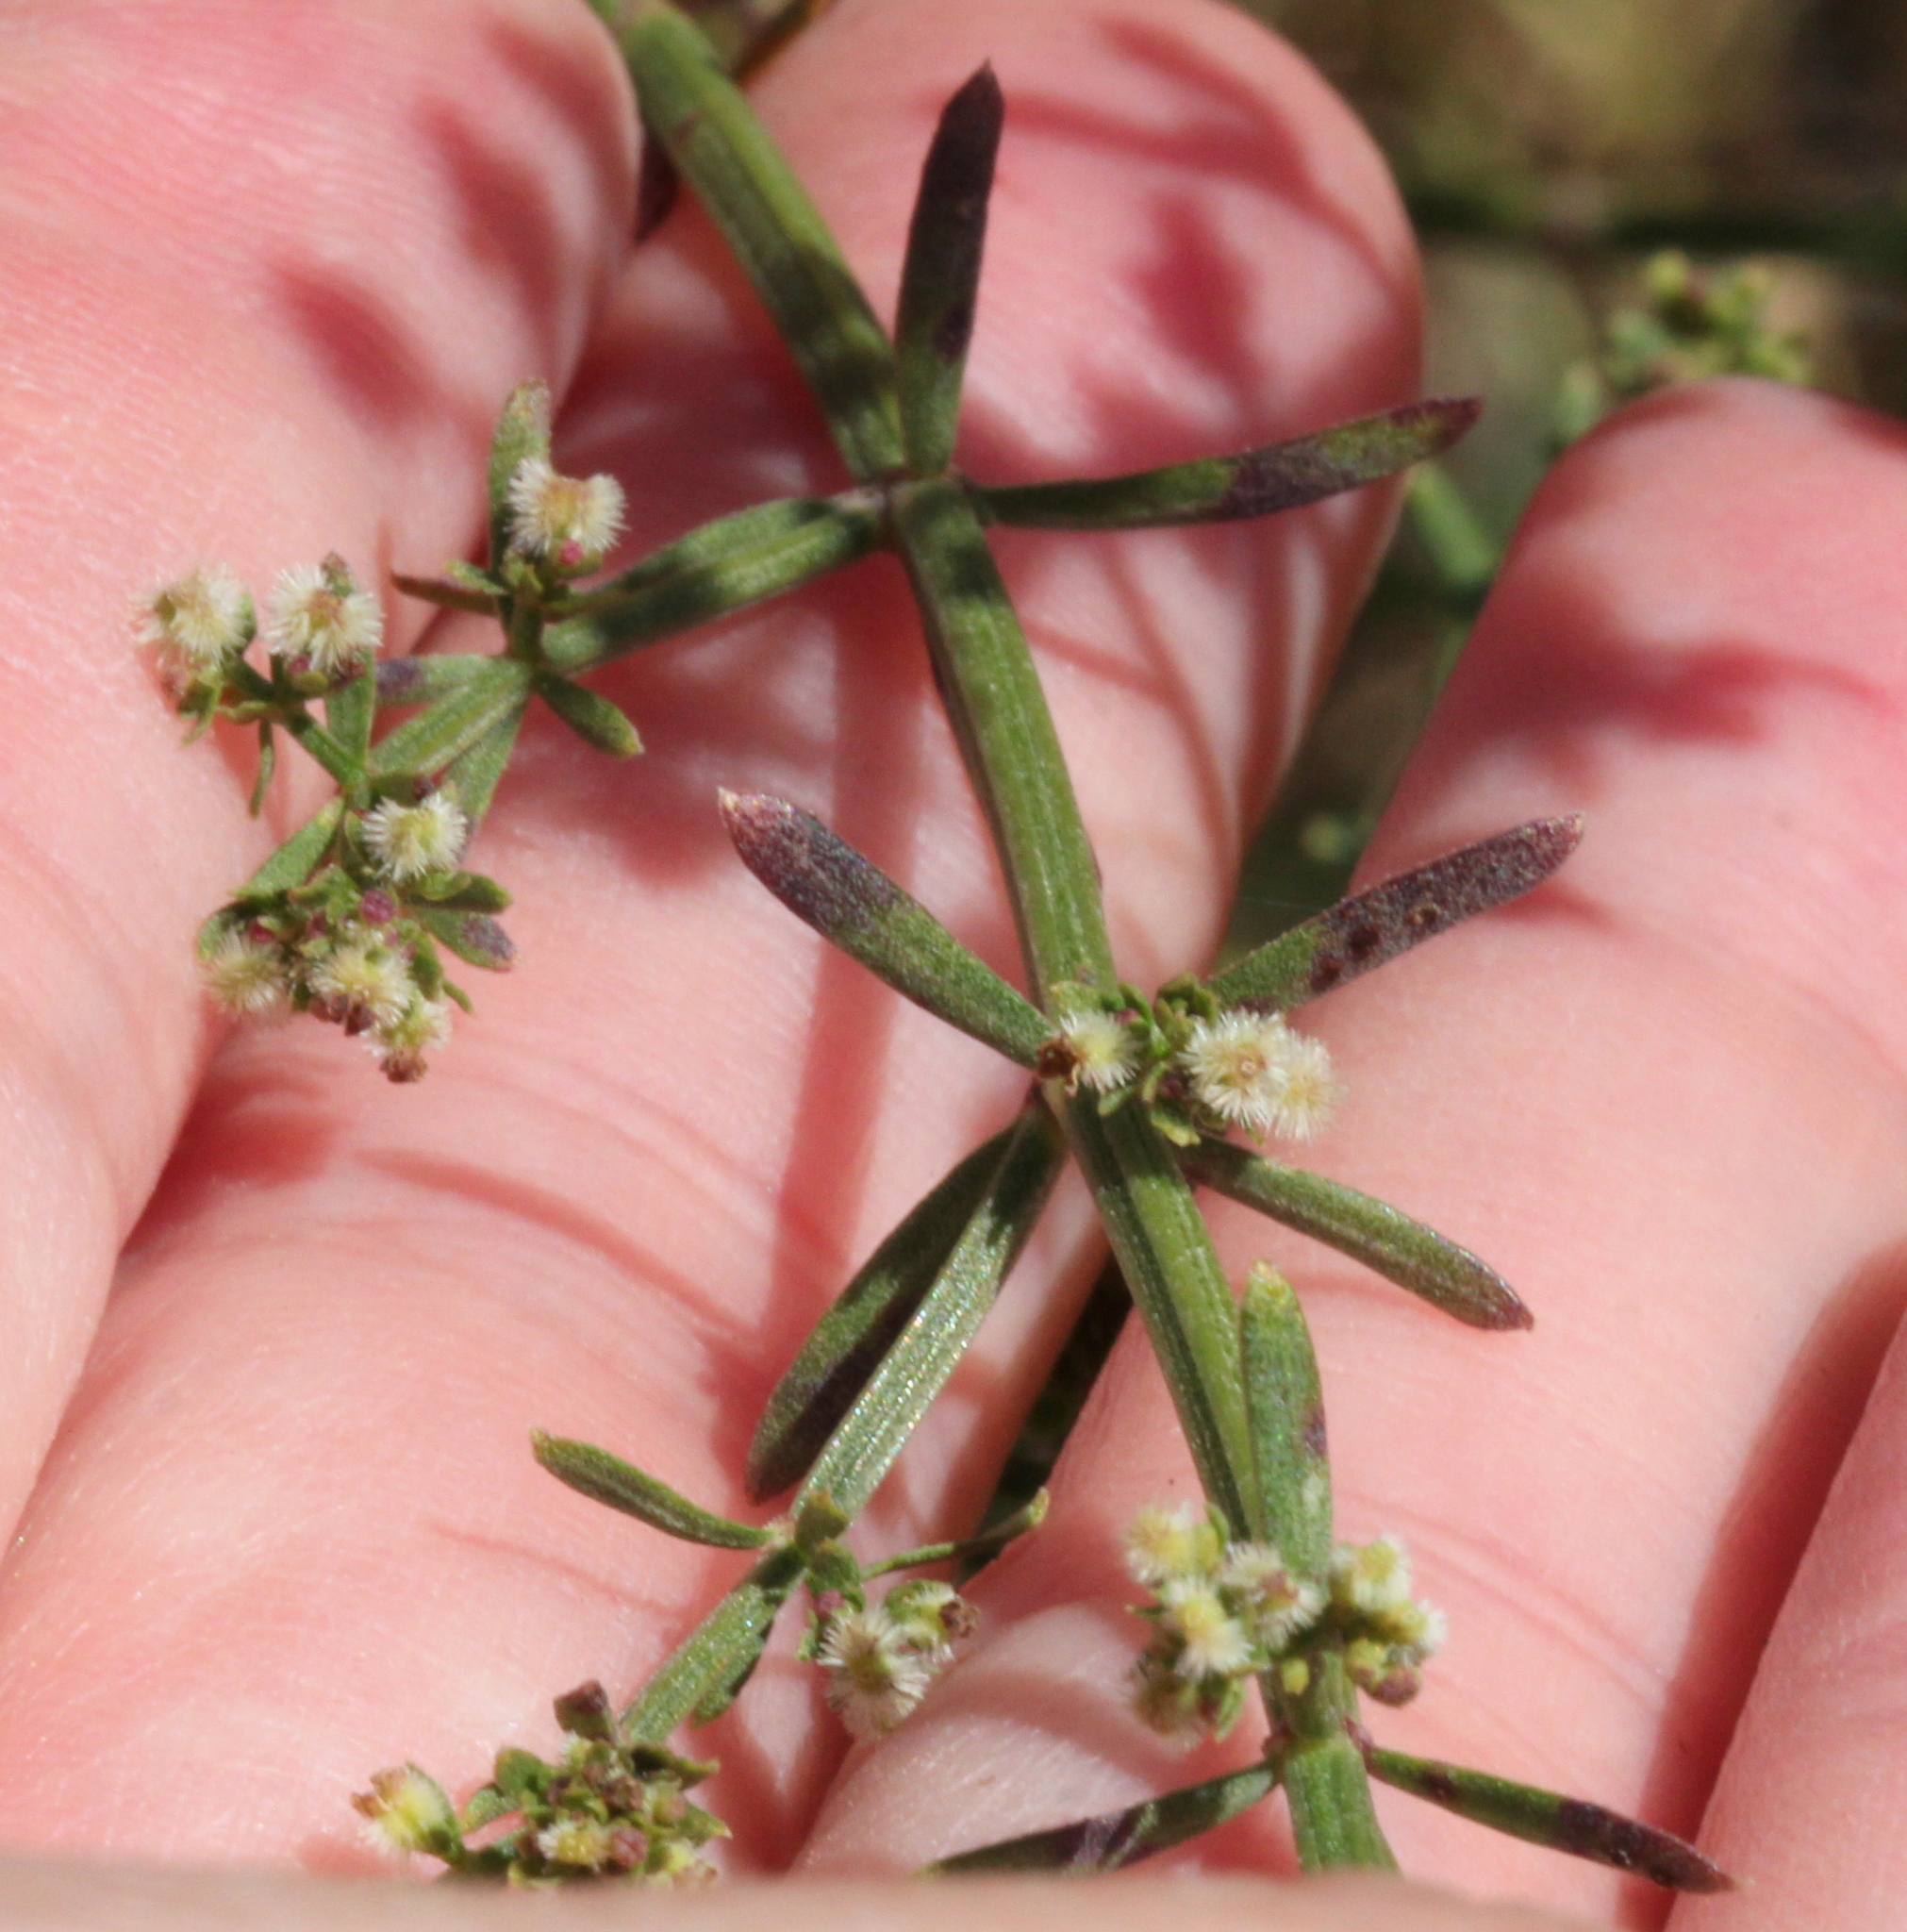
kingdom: Plantae
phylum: Tracheophyta
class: Magnoliopsida
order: Gentianales
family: Rubiaceae
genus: Galium
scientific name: Galium angustifolium
